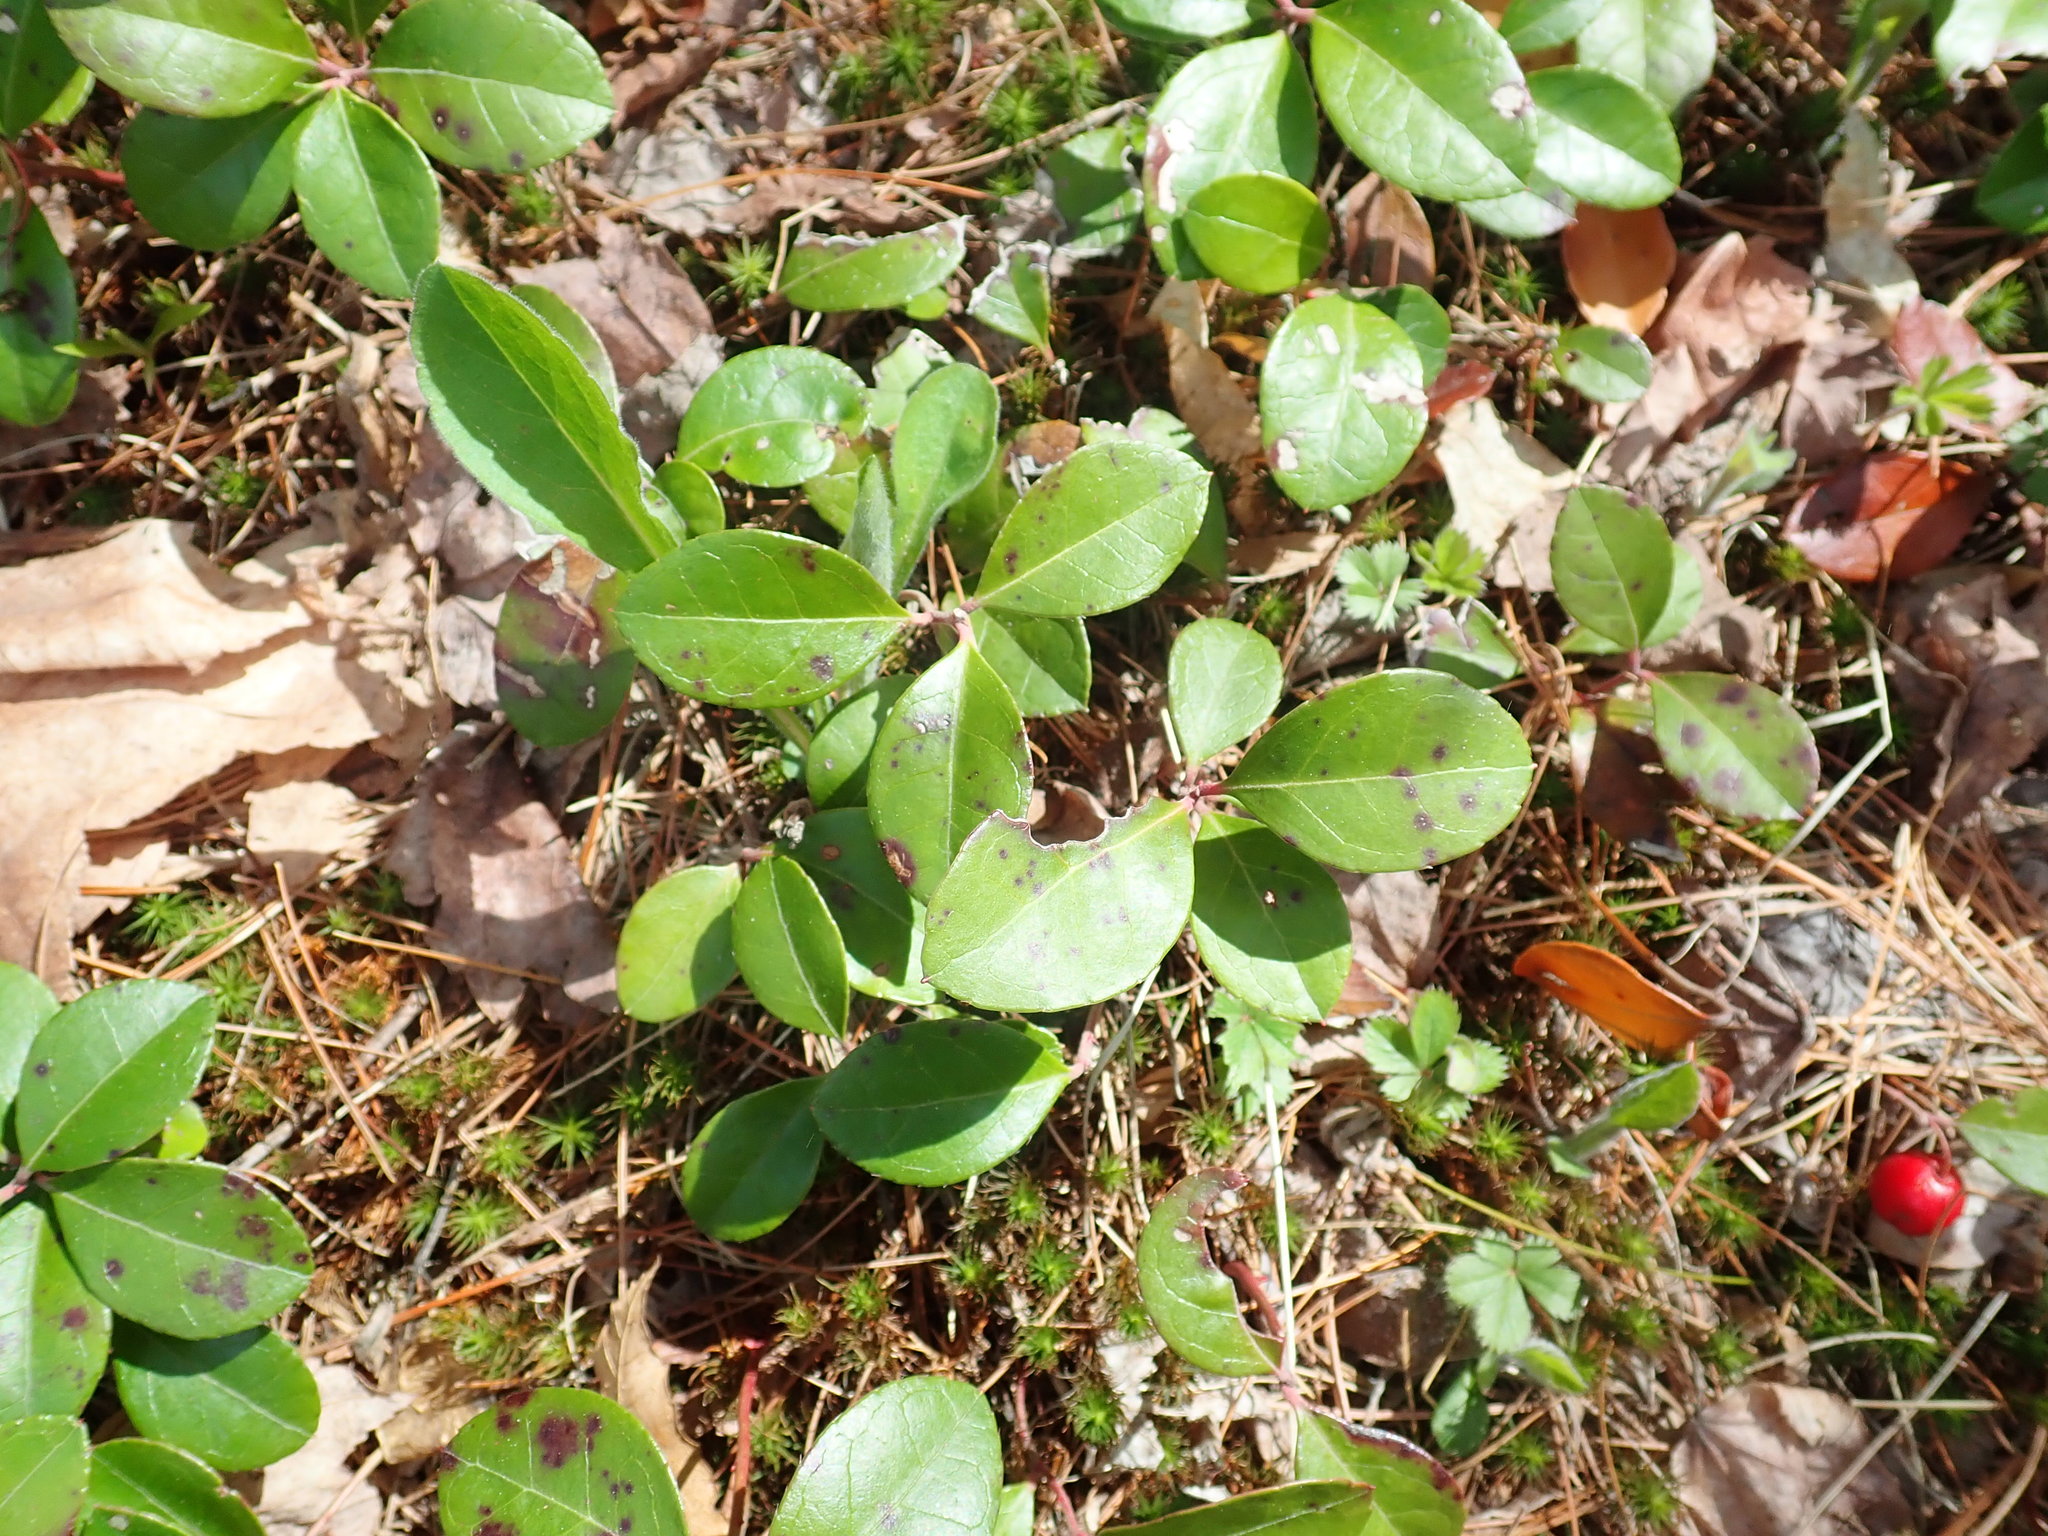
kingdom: Plantae
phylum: Tracheophyta
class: Magnoliopsida
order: Ericales
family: Ericaceae
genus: Gaultheria
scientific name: Gaultheria procumbens
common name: Checkerberry
